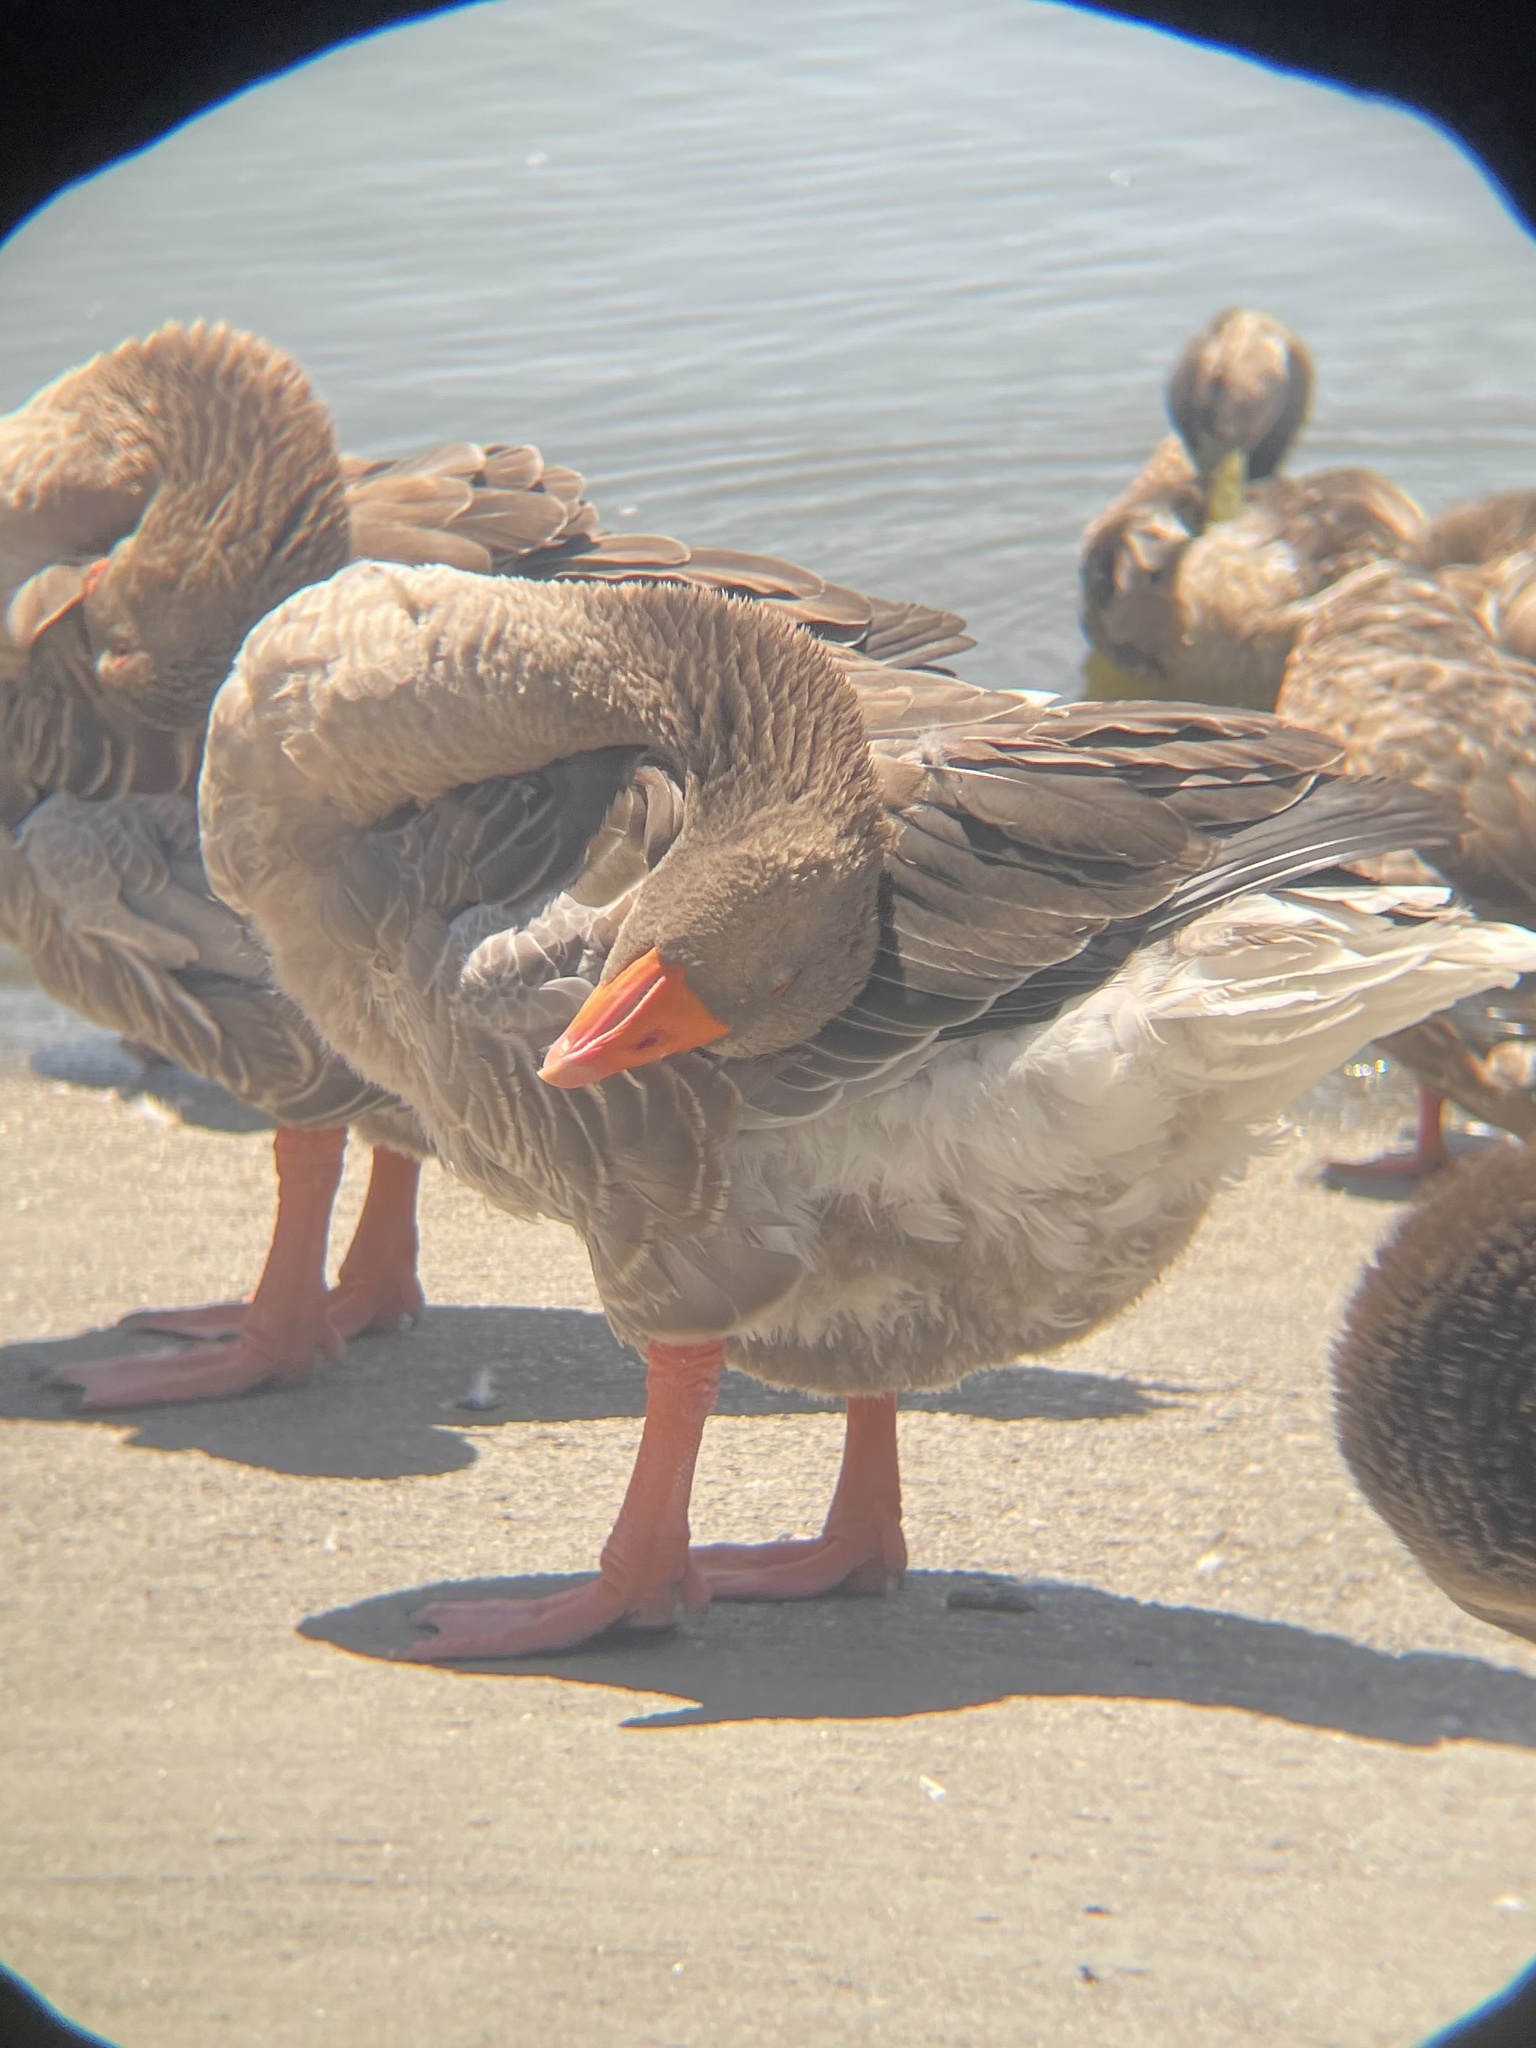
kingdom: Animalia
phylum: Chordata
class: Aves
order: Anseriformes
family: Anatidae
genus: Anser
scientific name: Anser anser
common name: Greylag goose
